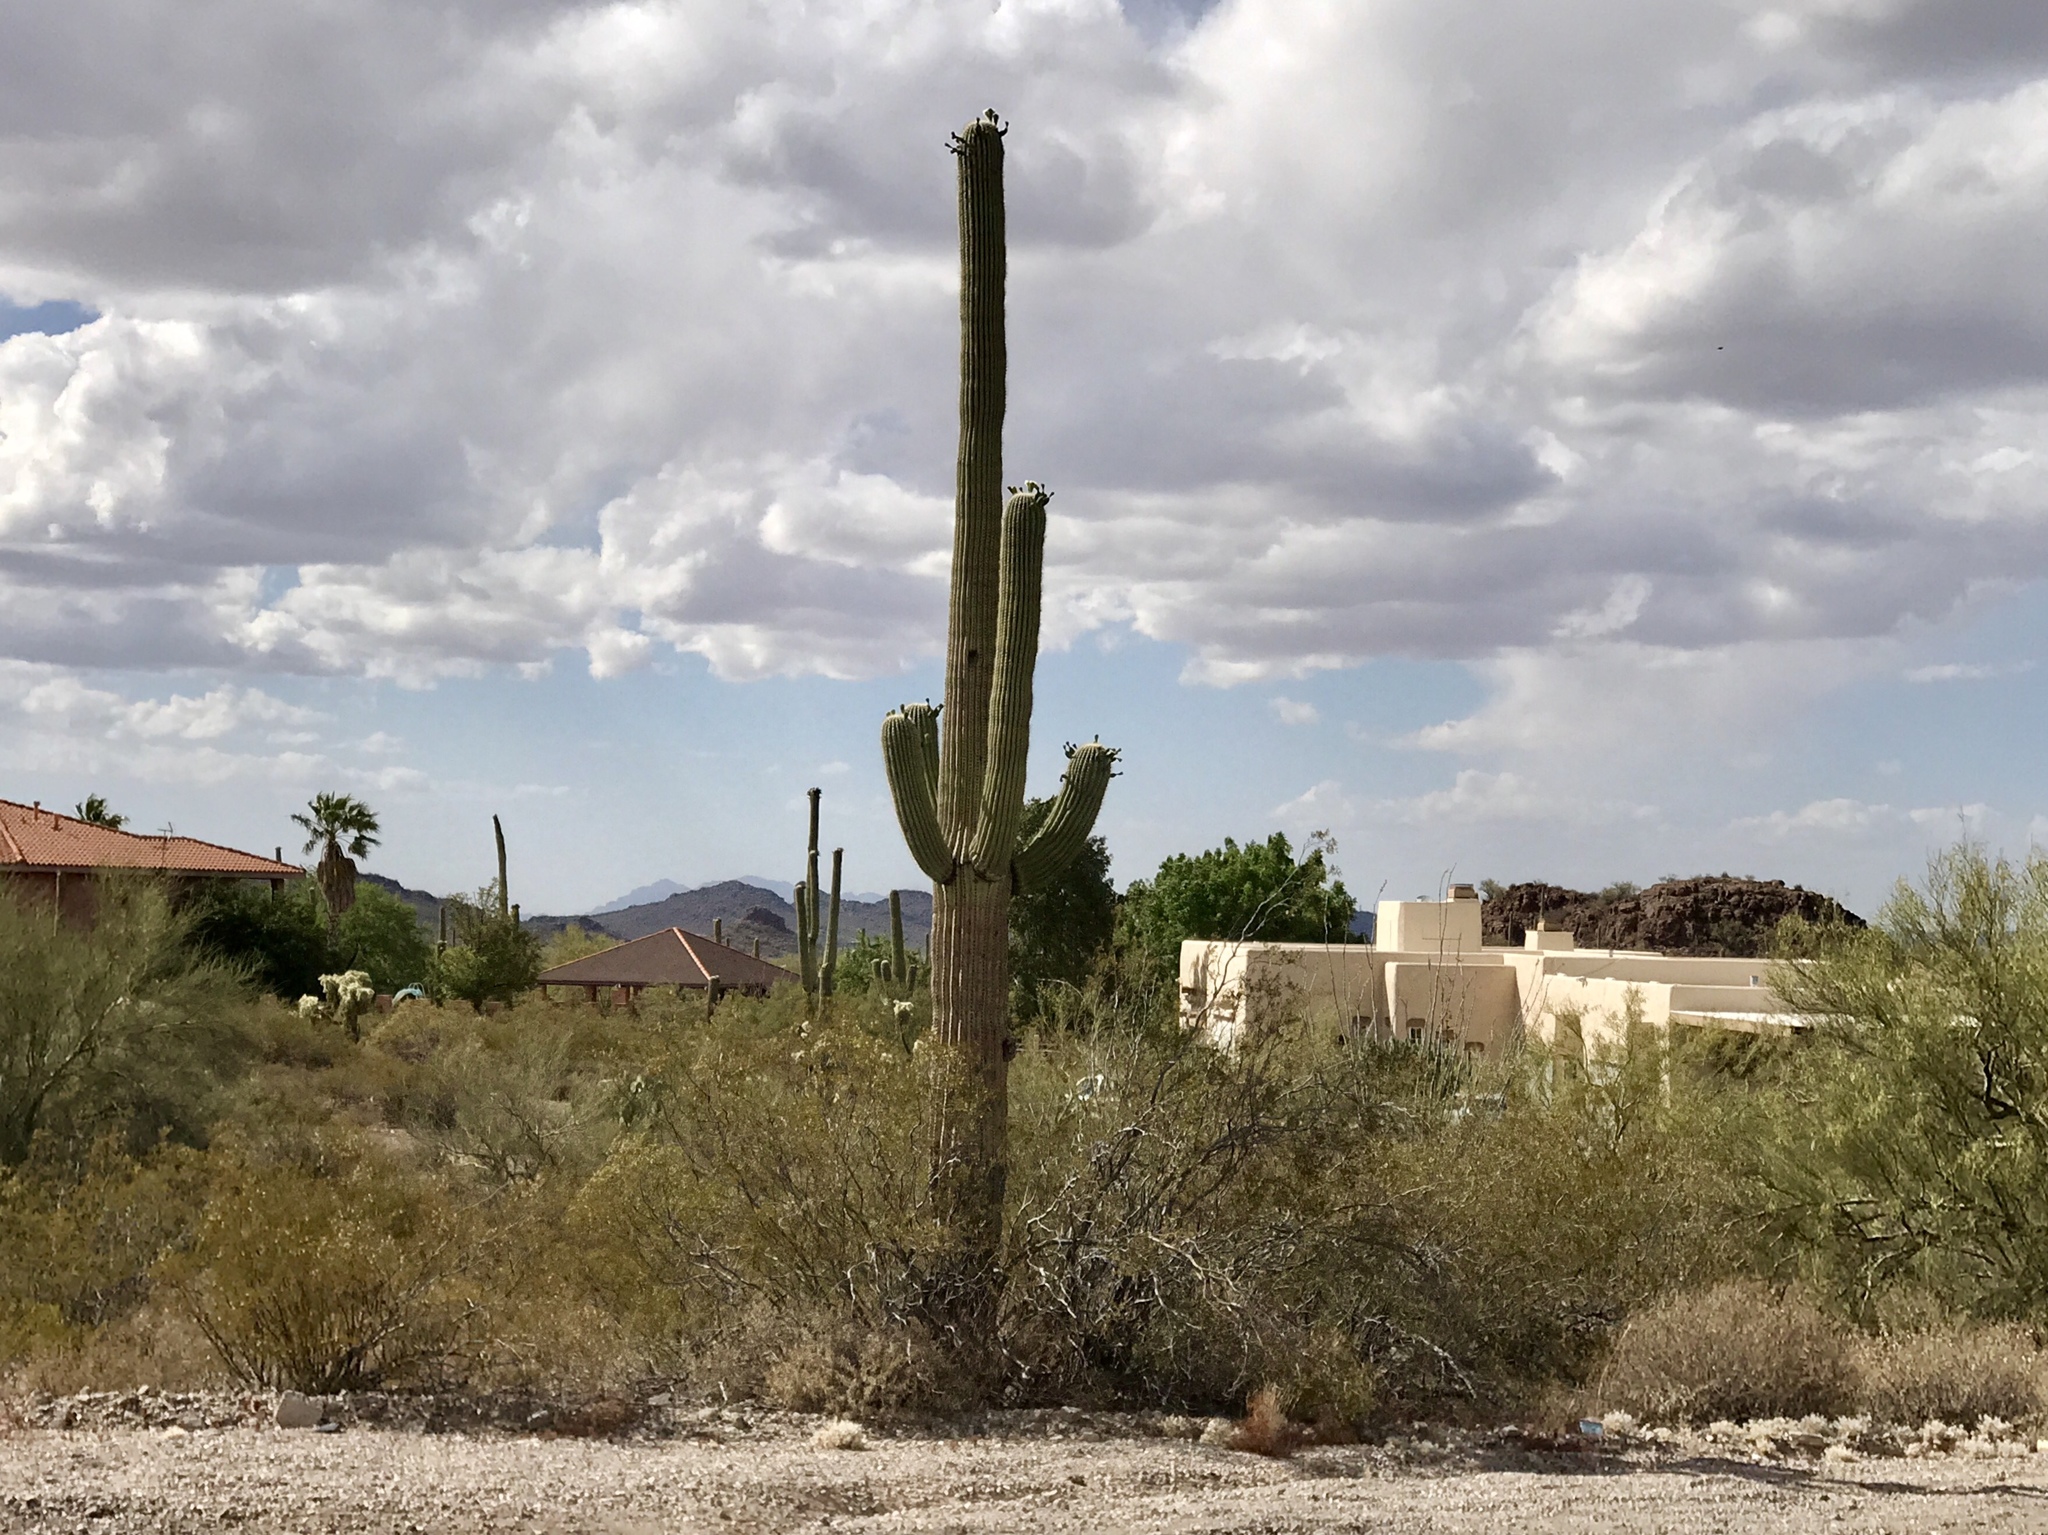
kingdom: Plantae
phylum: Tracheophyta
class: Magnoliopsida
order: Caryophyllales
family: Cactaceae
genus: Carnegiea
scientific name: Carnegiea gigantea
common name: Saguaro
